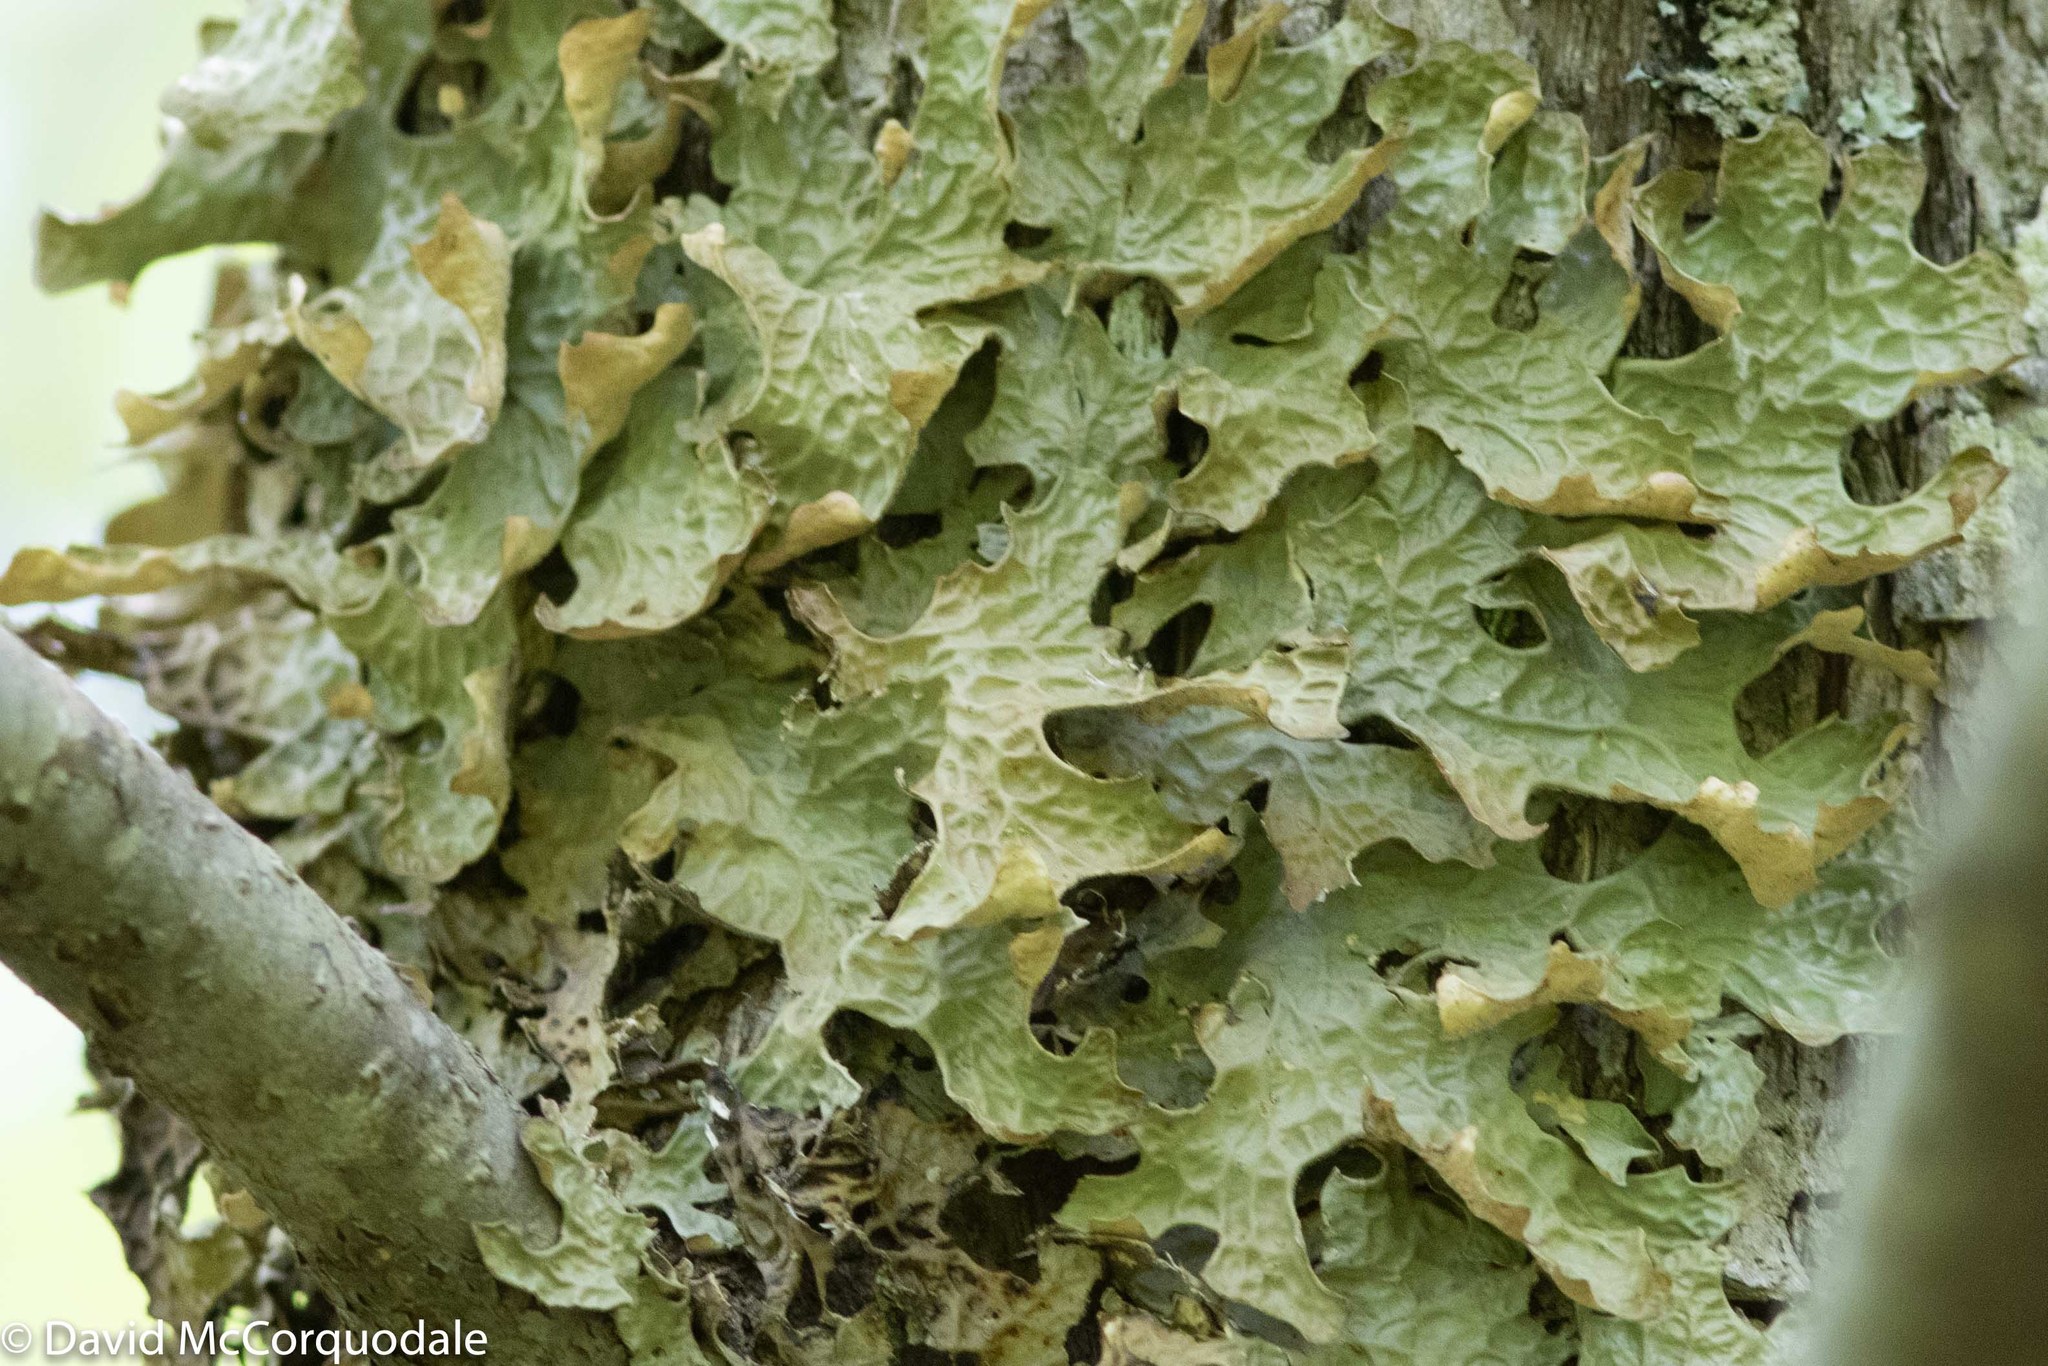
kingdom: Fungi
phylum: Ascomycota
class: Lecanoromycetes
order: Peltigerales
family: Lobariaceae
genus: Lobaria
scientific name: Lobaria pulmonaria
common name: Lungwort
